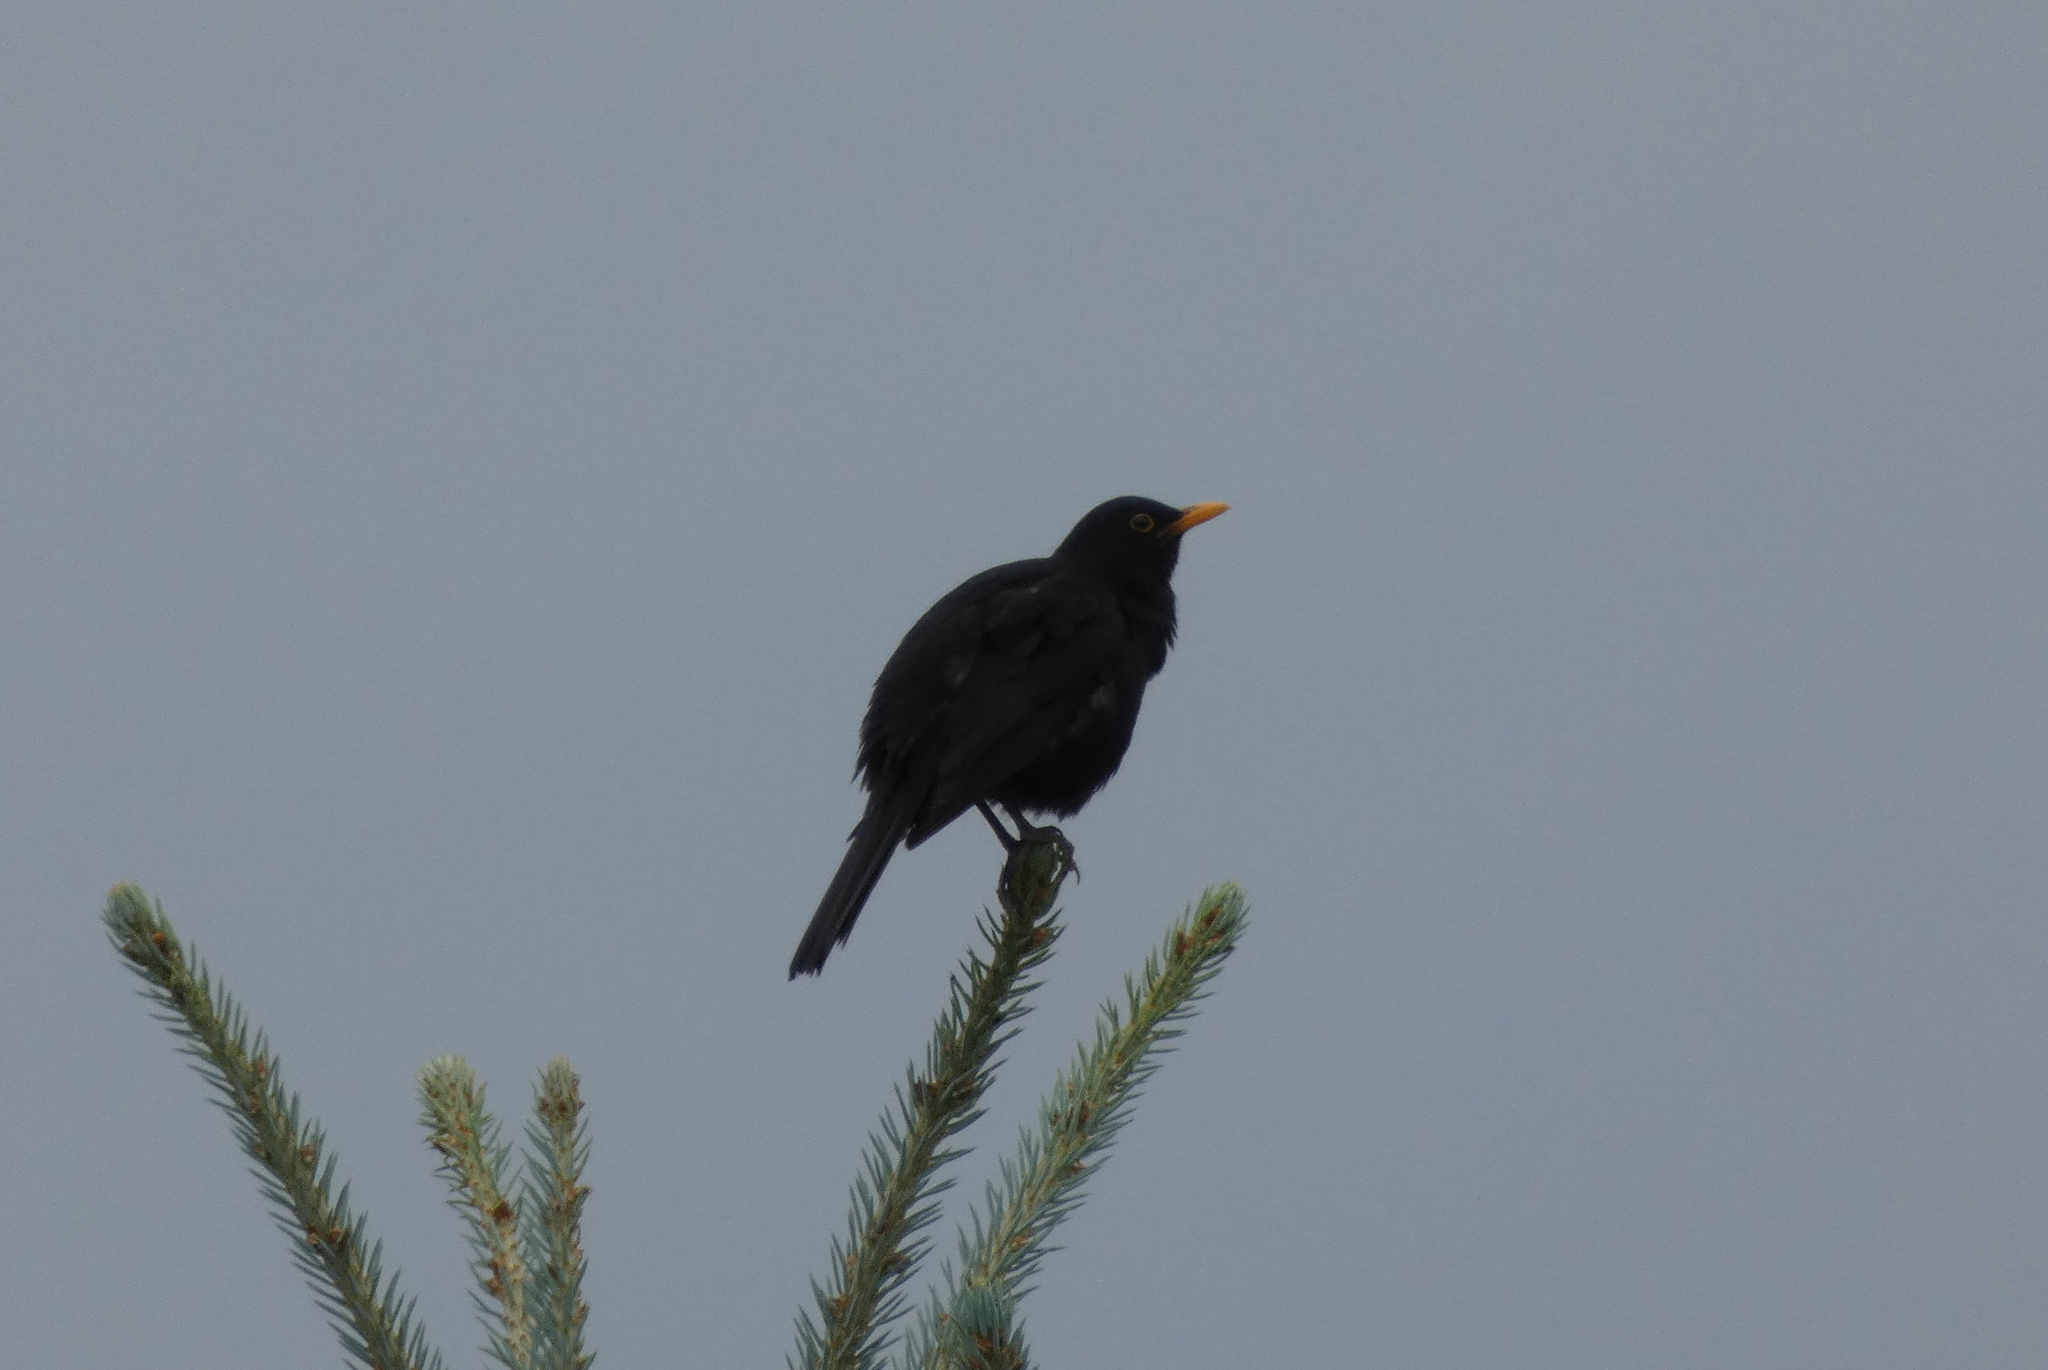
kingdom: Animalia
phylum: Chordata
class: Aves
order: Passeriformes
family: Turdidae
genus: Turdus
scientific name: Turdus merula
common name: Common blackbird
